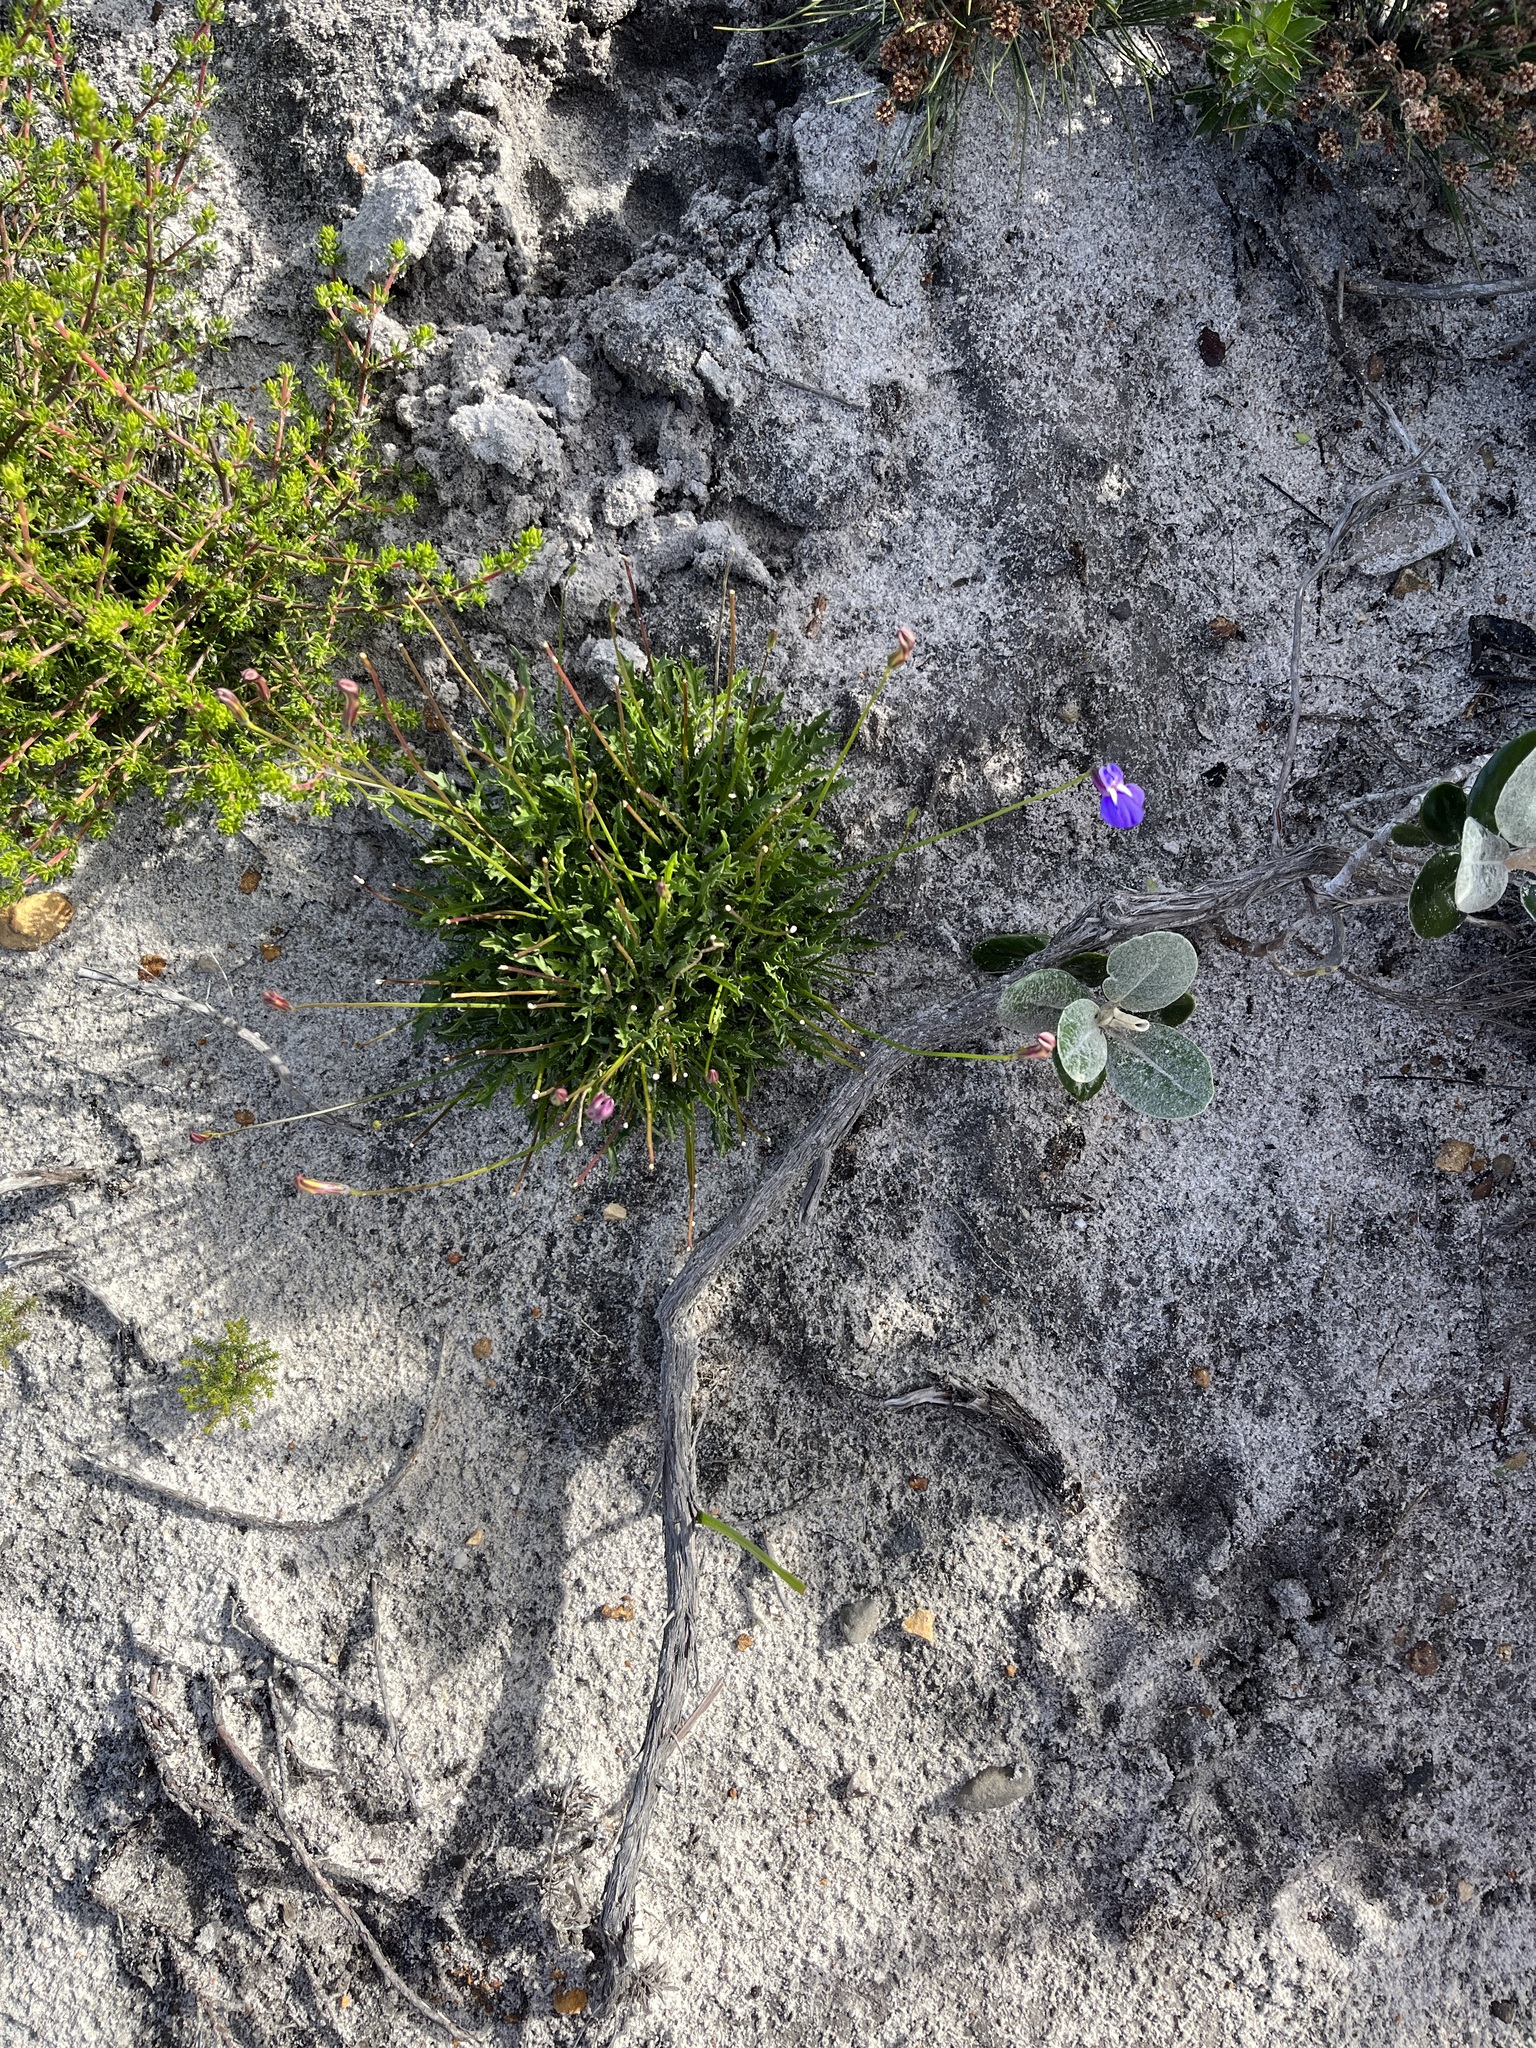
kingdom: Plantae
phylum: Tracheophyta
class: Magnoliopsida
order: Asterales
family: Campanulaceae
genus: Lobelia
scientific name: Lobelia coronopifolia
